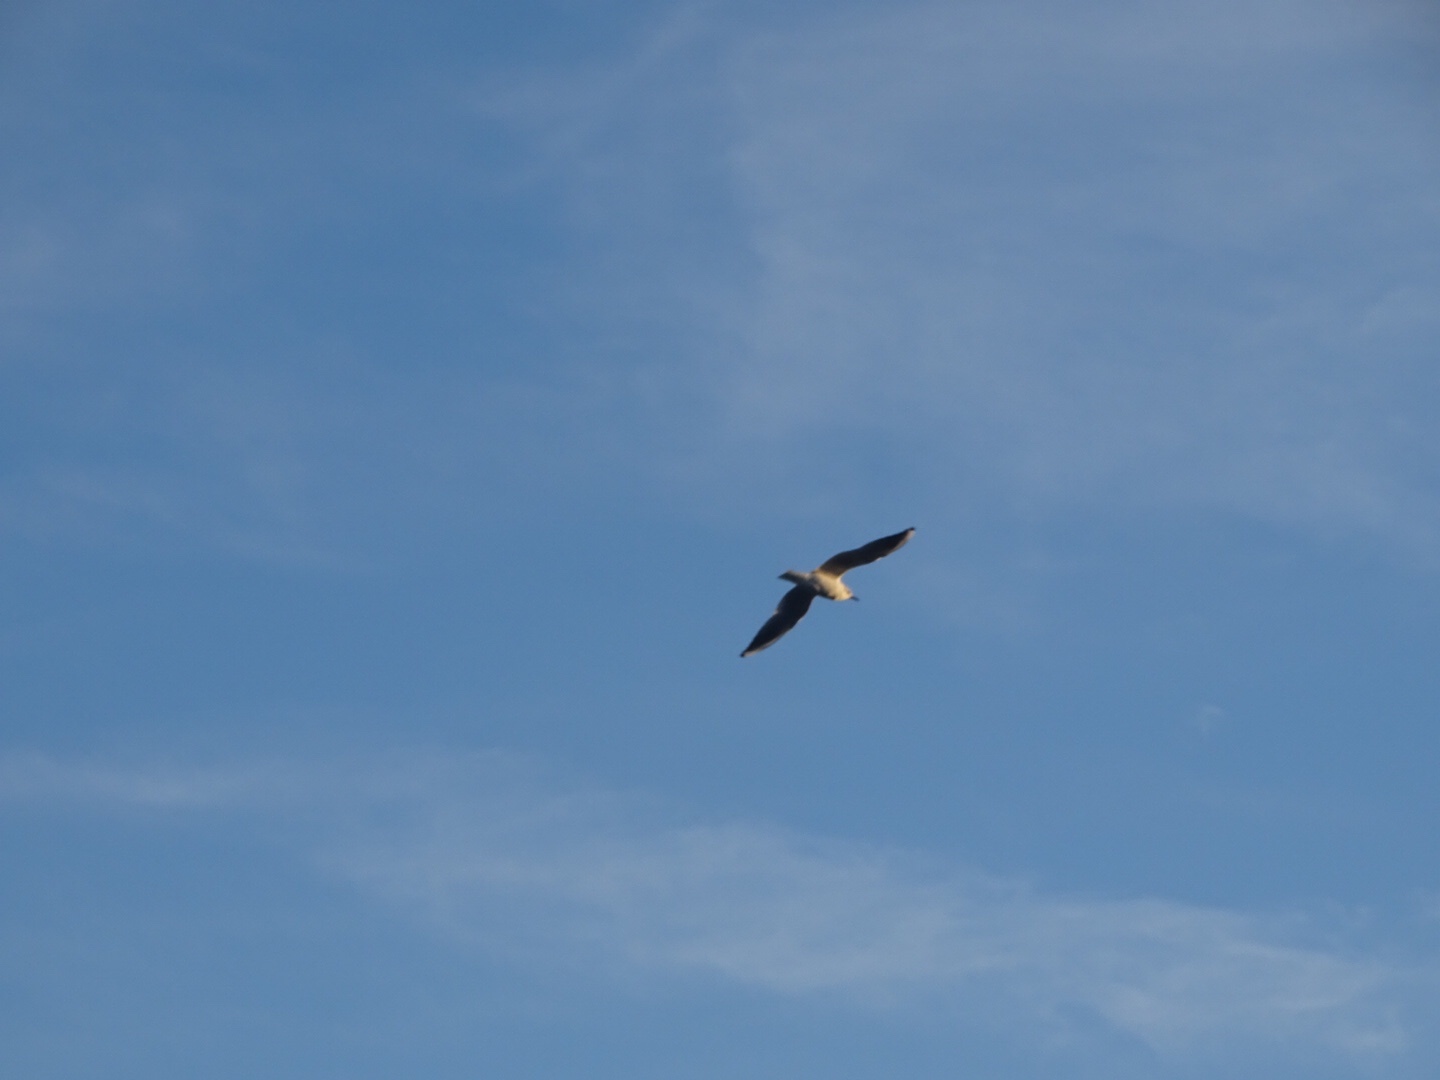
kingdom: Animalia
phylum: Chordata
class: Aves
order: Charadriiformes
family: Laridae
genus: Chroicocephalus
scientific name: Chroicocephalus ridibundus
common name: Black-headed gull
